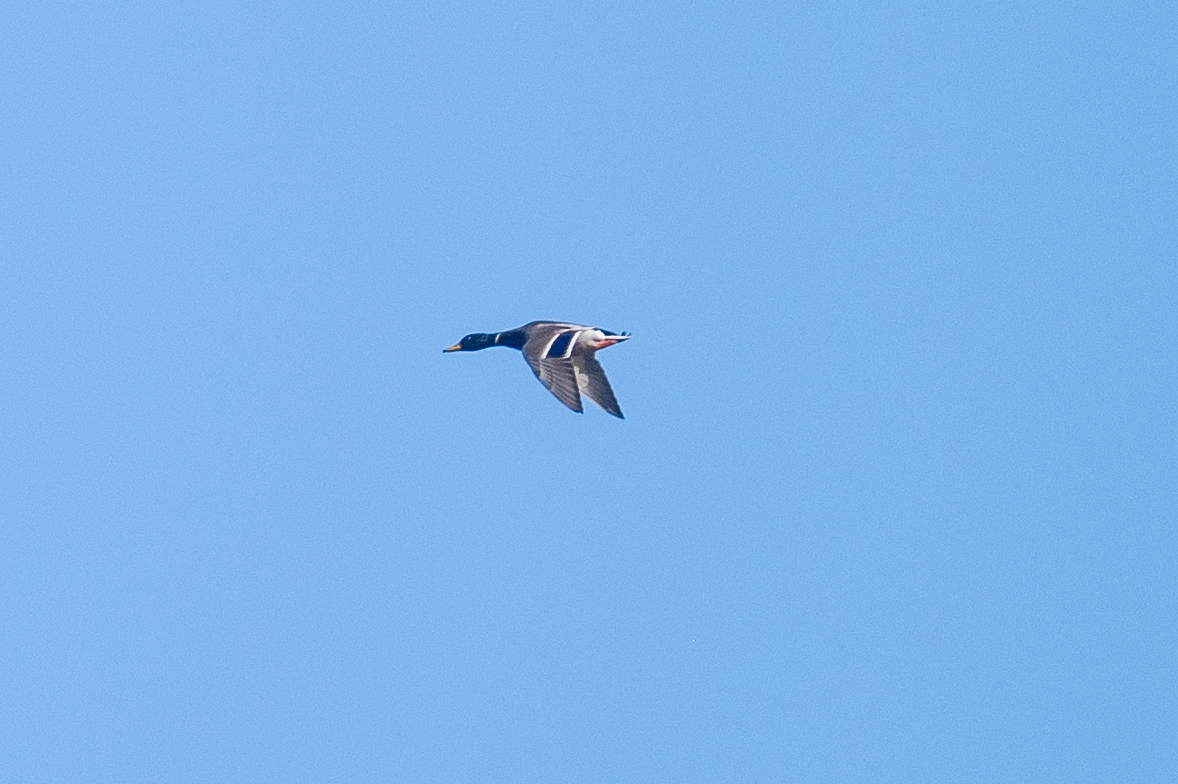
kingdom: Animalia
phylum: Chordata
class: Aves
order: Anseriformes
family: Anatidae
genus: Anas
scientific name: Anas platyrhynchos
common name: Mallard
